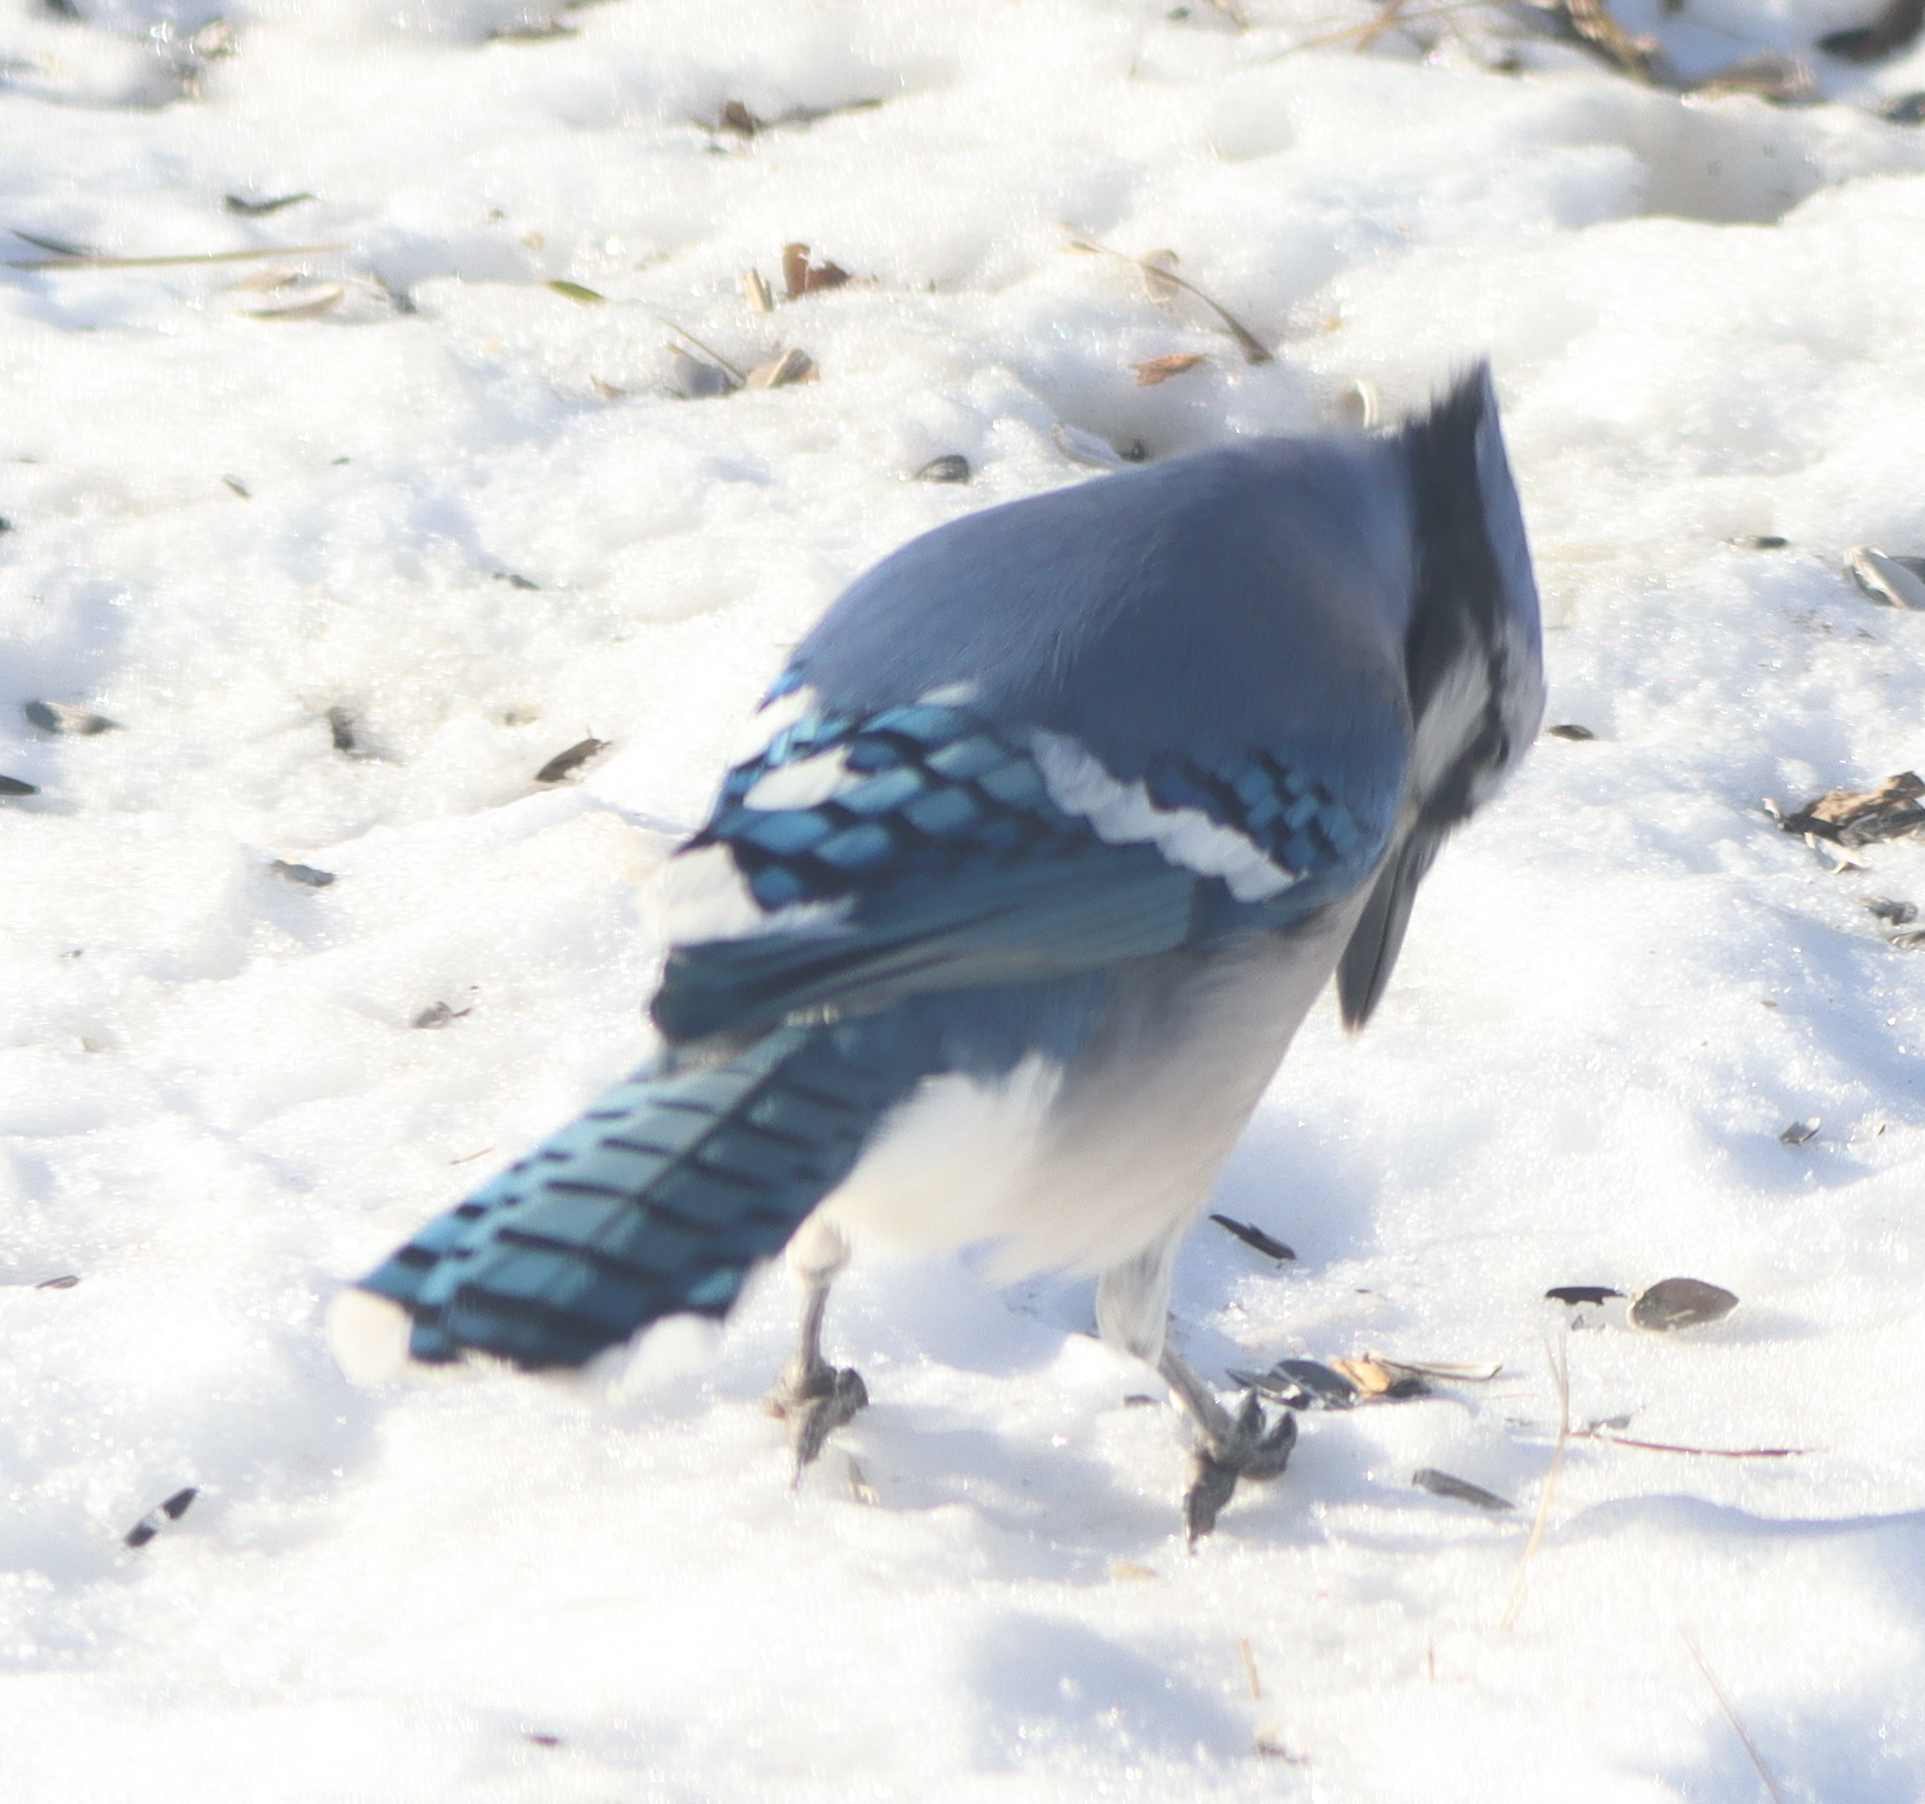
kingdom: Animalia
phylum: Chordata
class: Aves
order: Passeriformes
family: Corvidae
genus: Cyanocitta
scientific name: Cyanocitta cristata
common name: Blue jay
